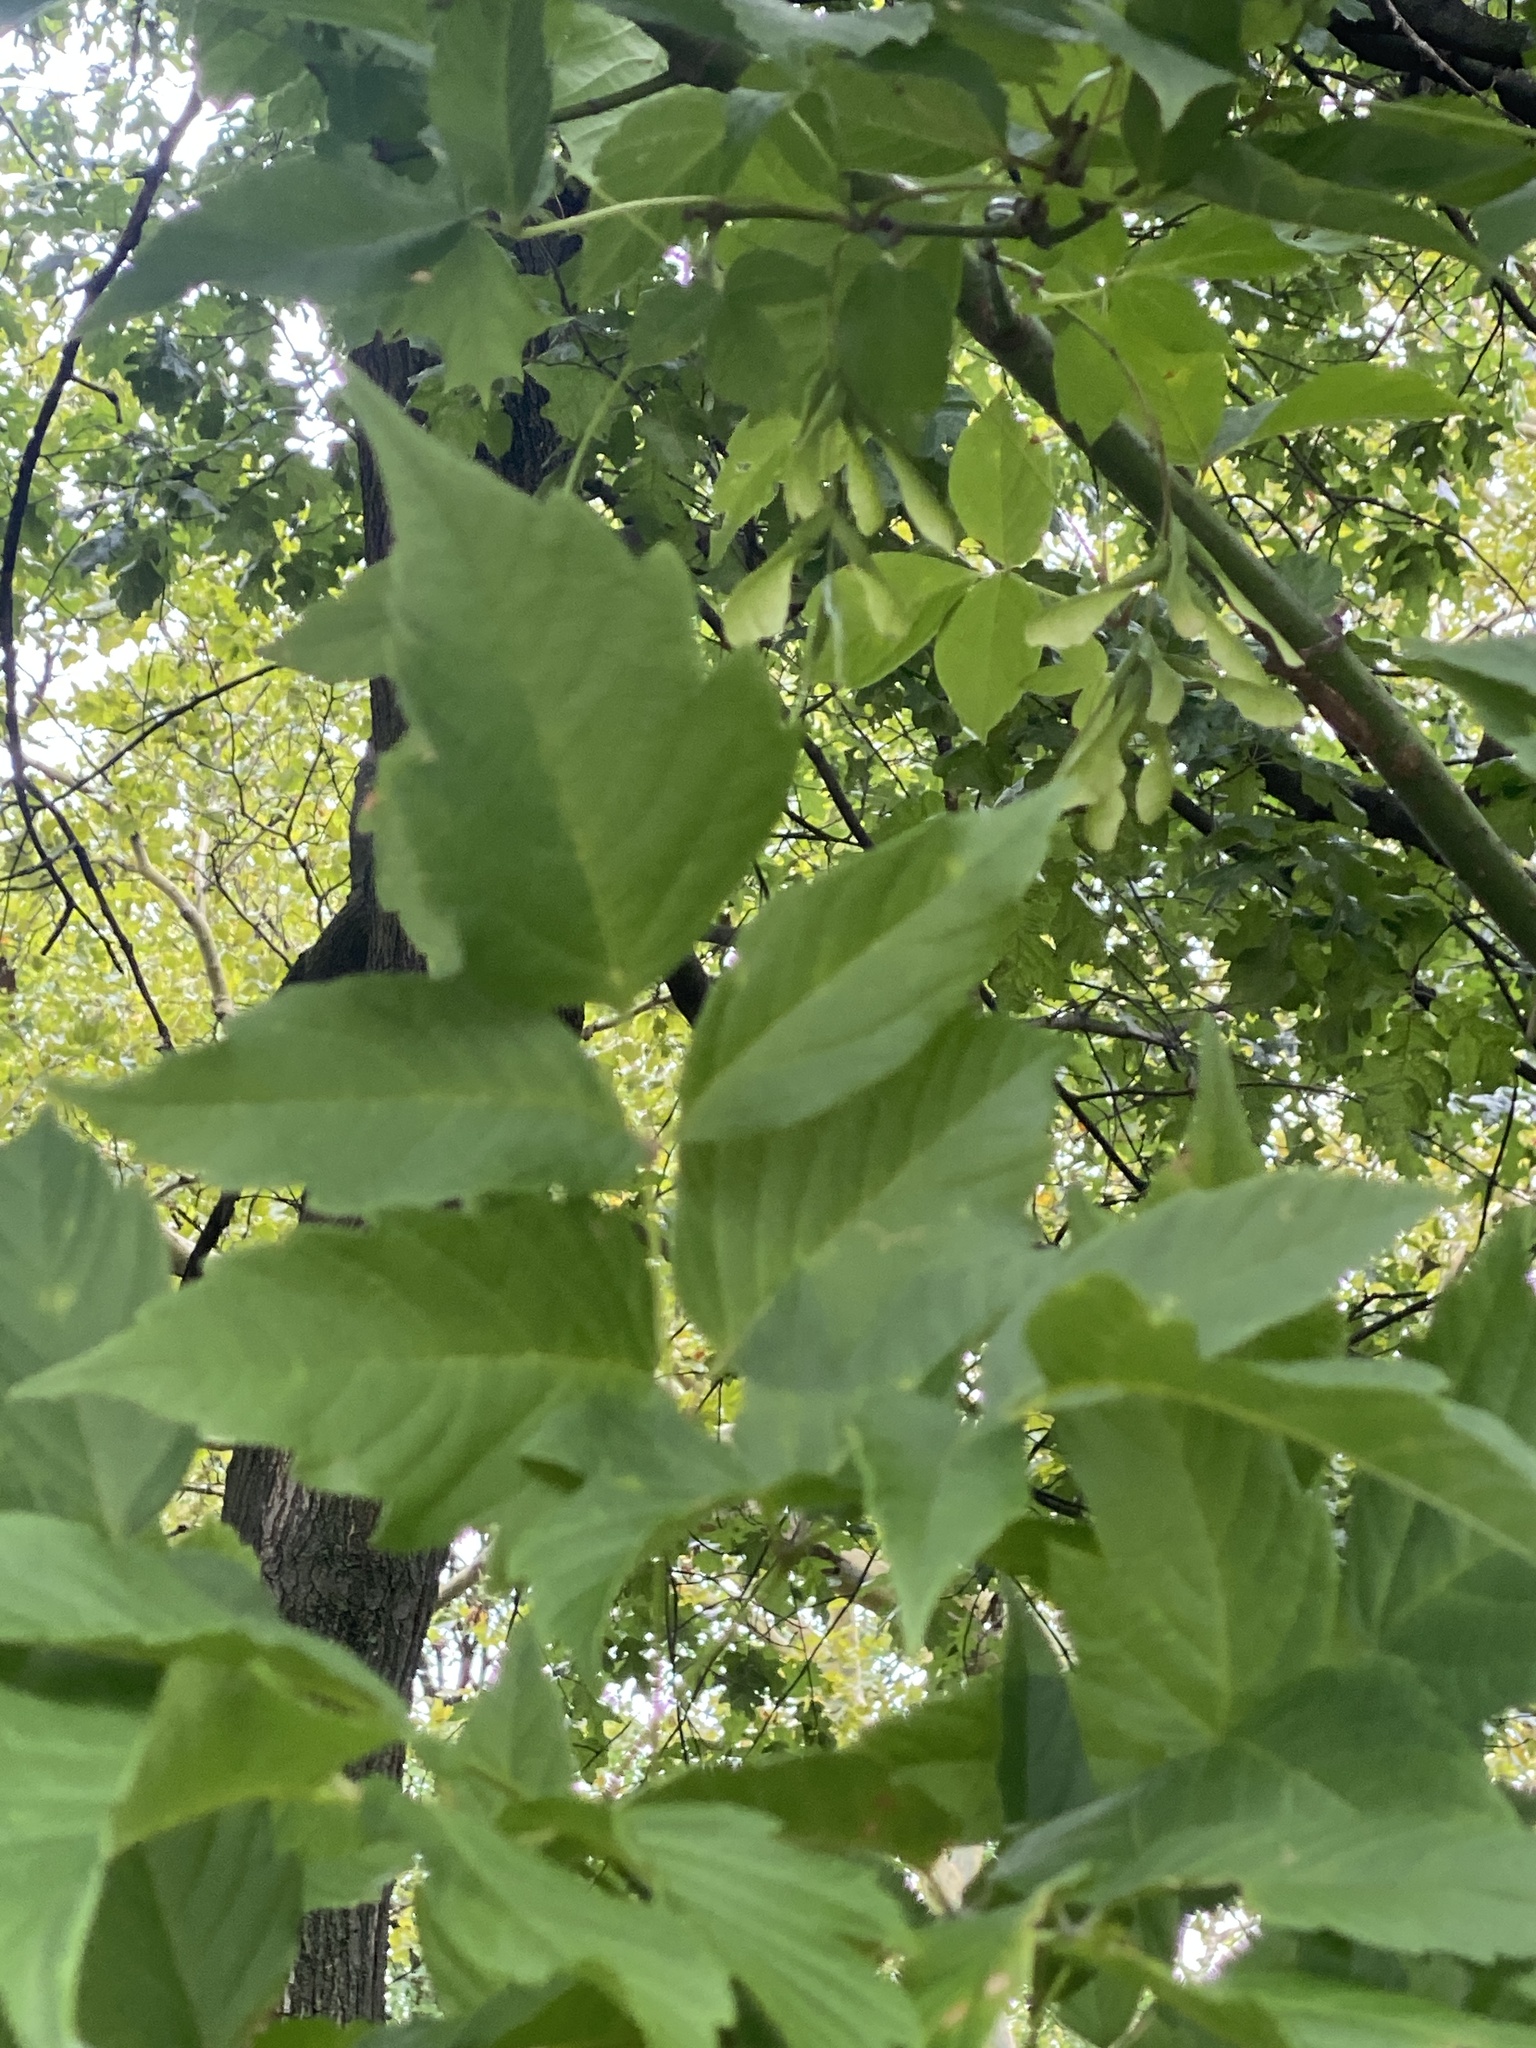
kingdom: Plantae
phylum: Tracheophyta
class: Magnoliopsida
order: Sapindales
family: Sapindaceae
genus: Acer
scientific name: Acer negundo
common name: Ashleaf maple
